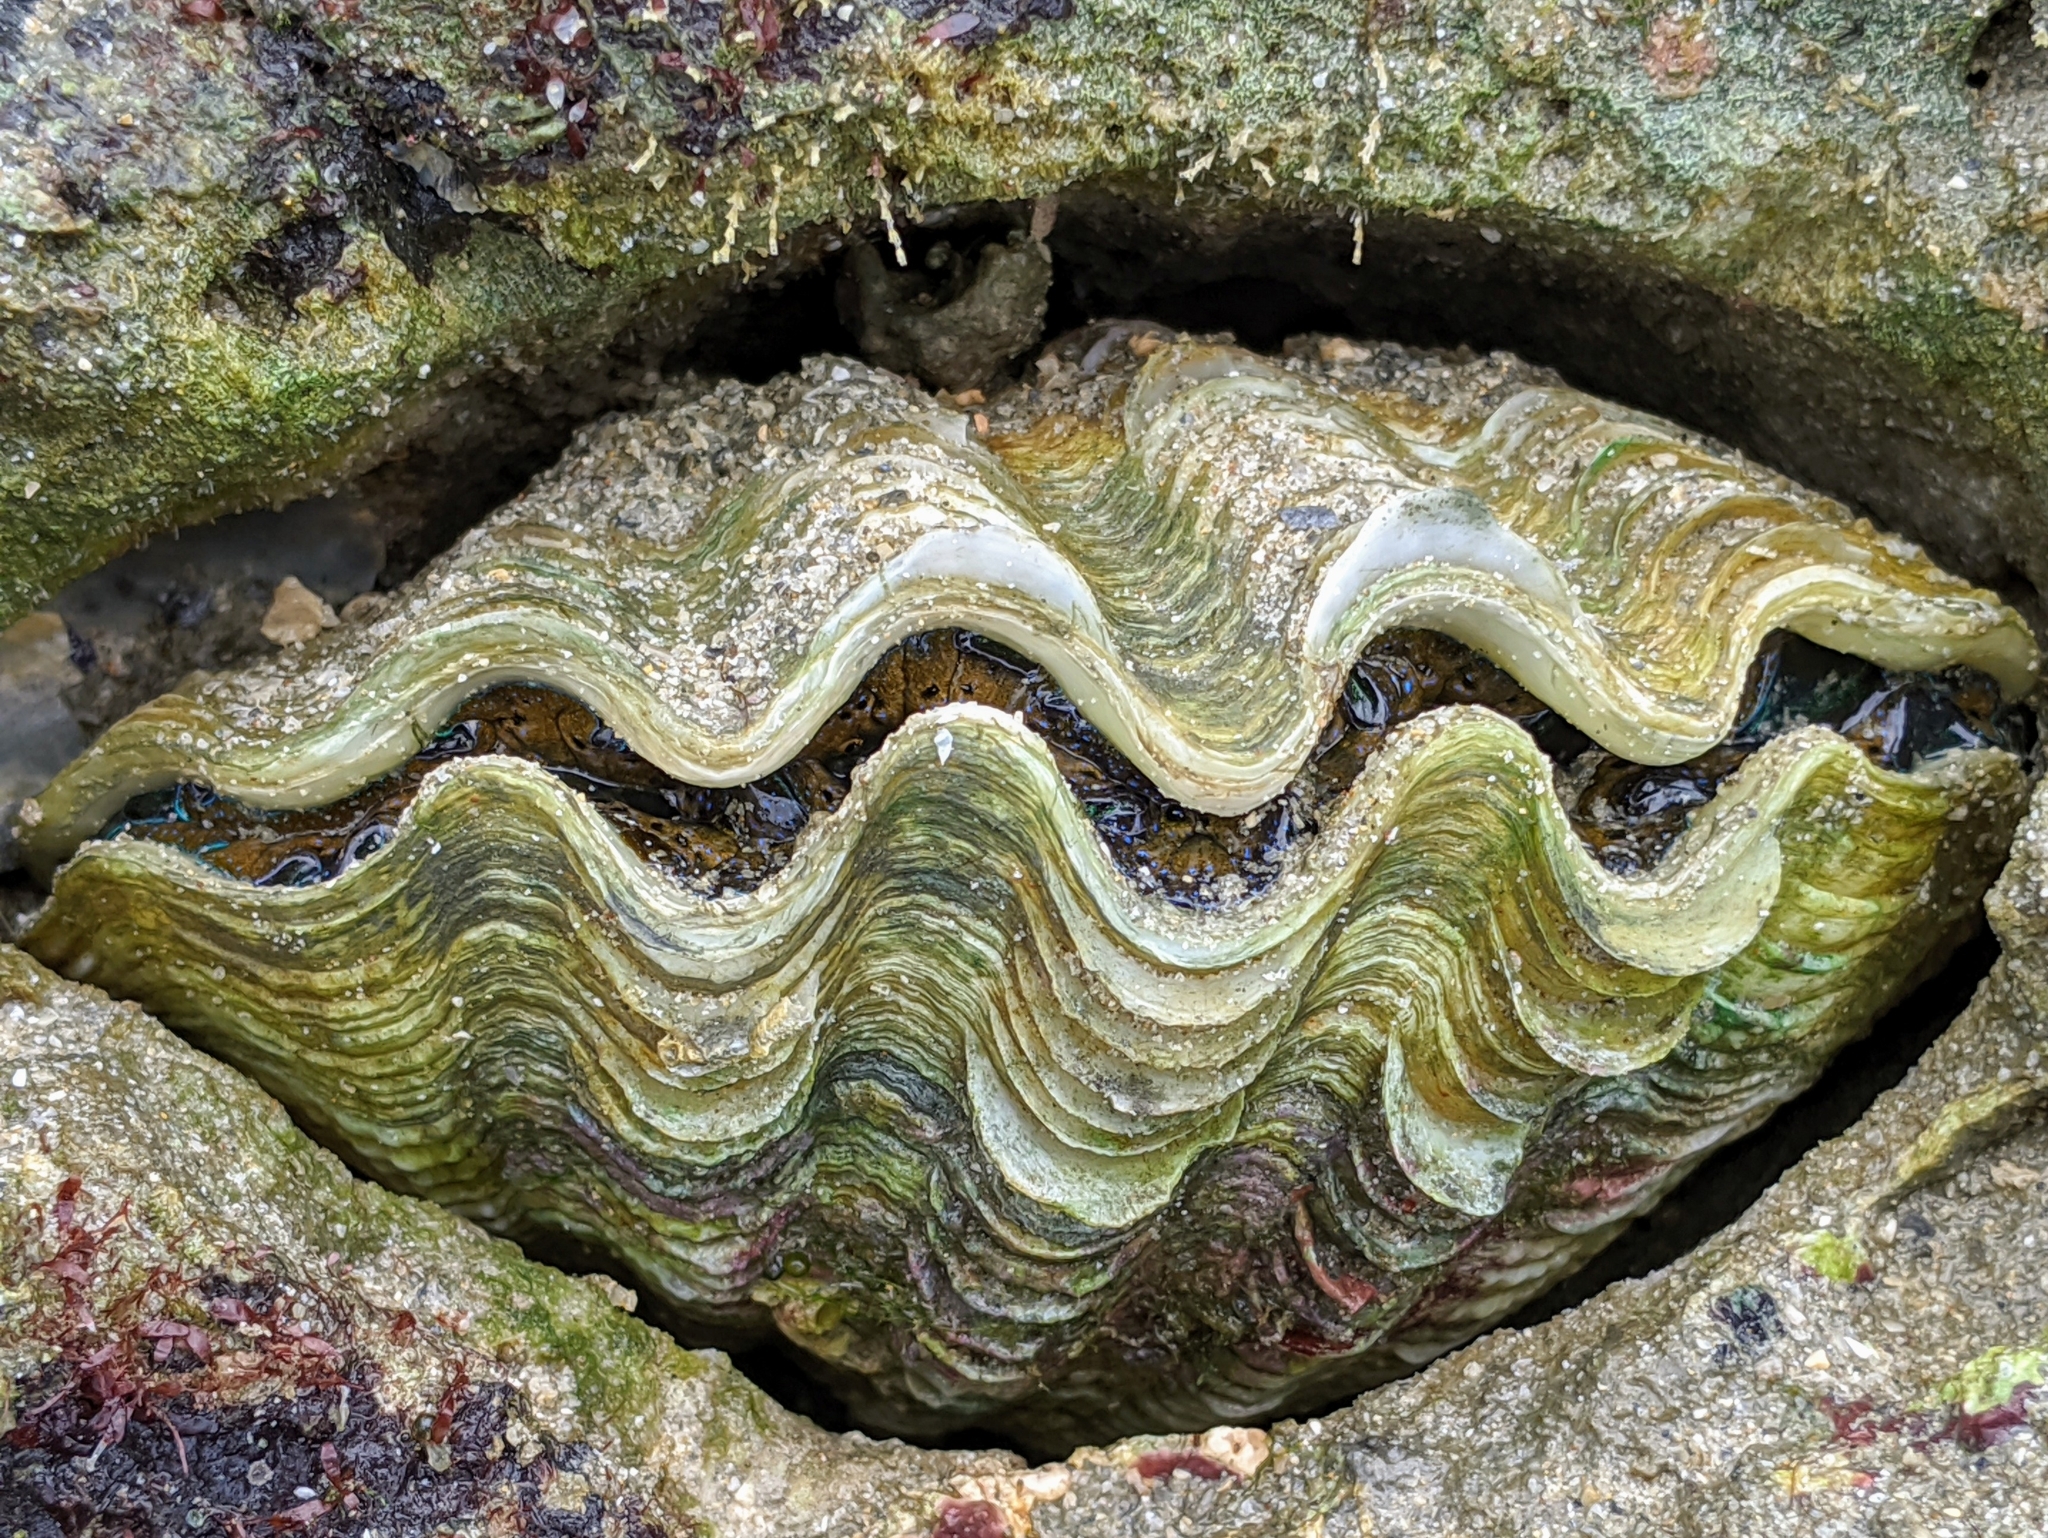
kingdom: Animalia
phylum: Mollusca
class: Bivalvia
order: Cardiida
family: Cardiidae
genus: Tridacna
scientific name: Tridacna maxima
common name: Small giant clam
